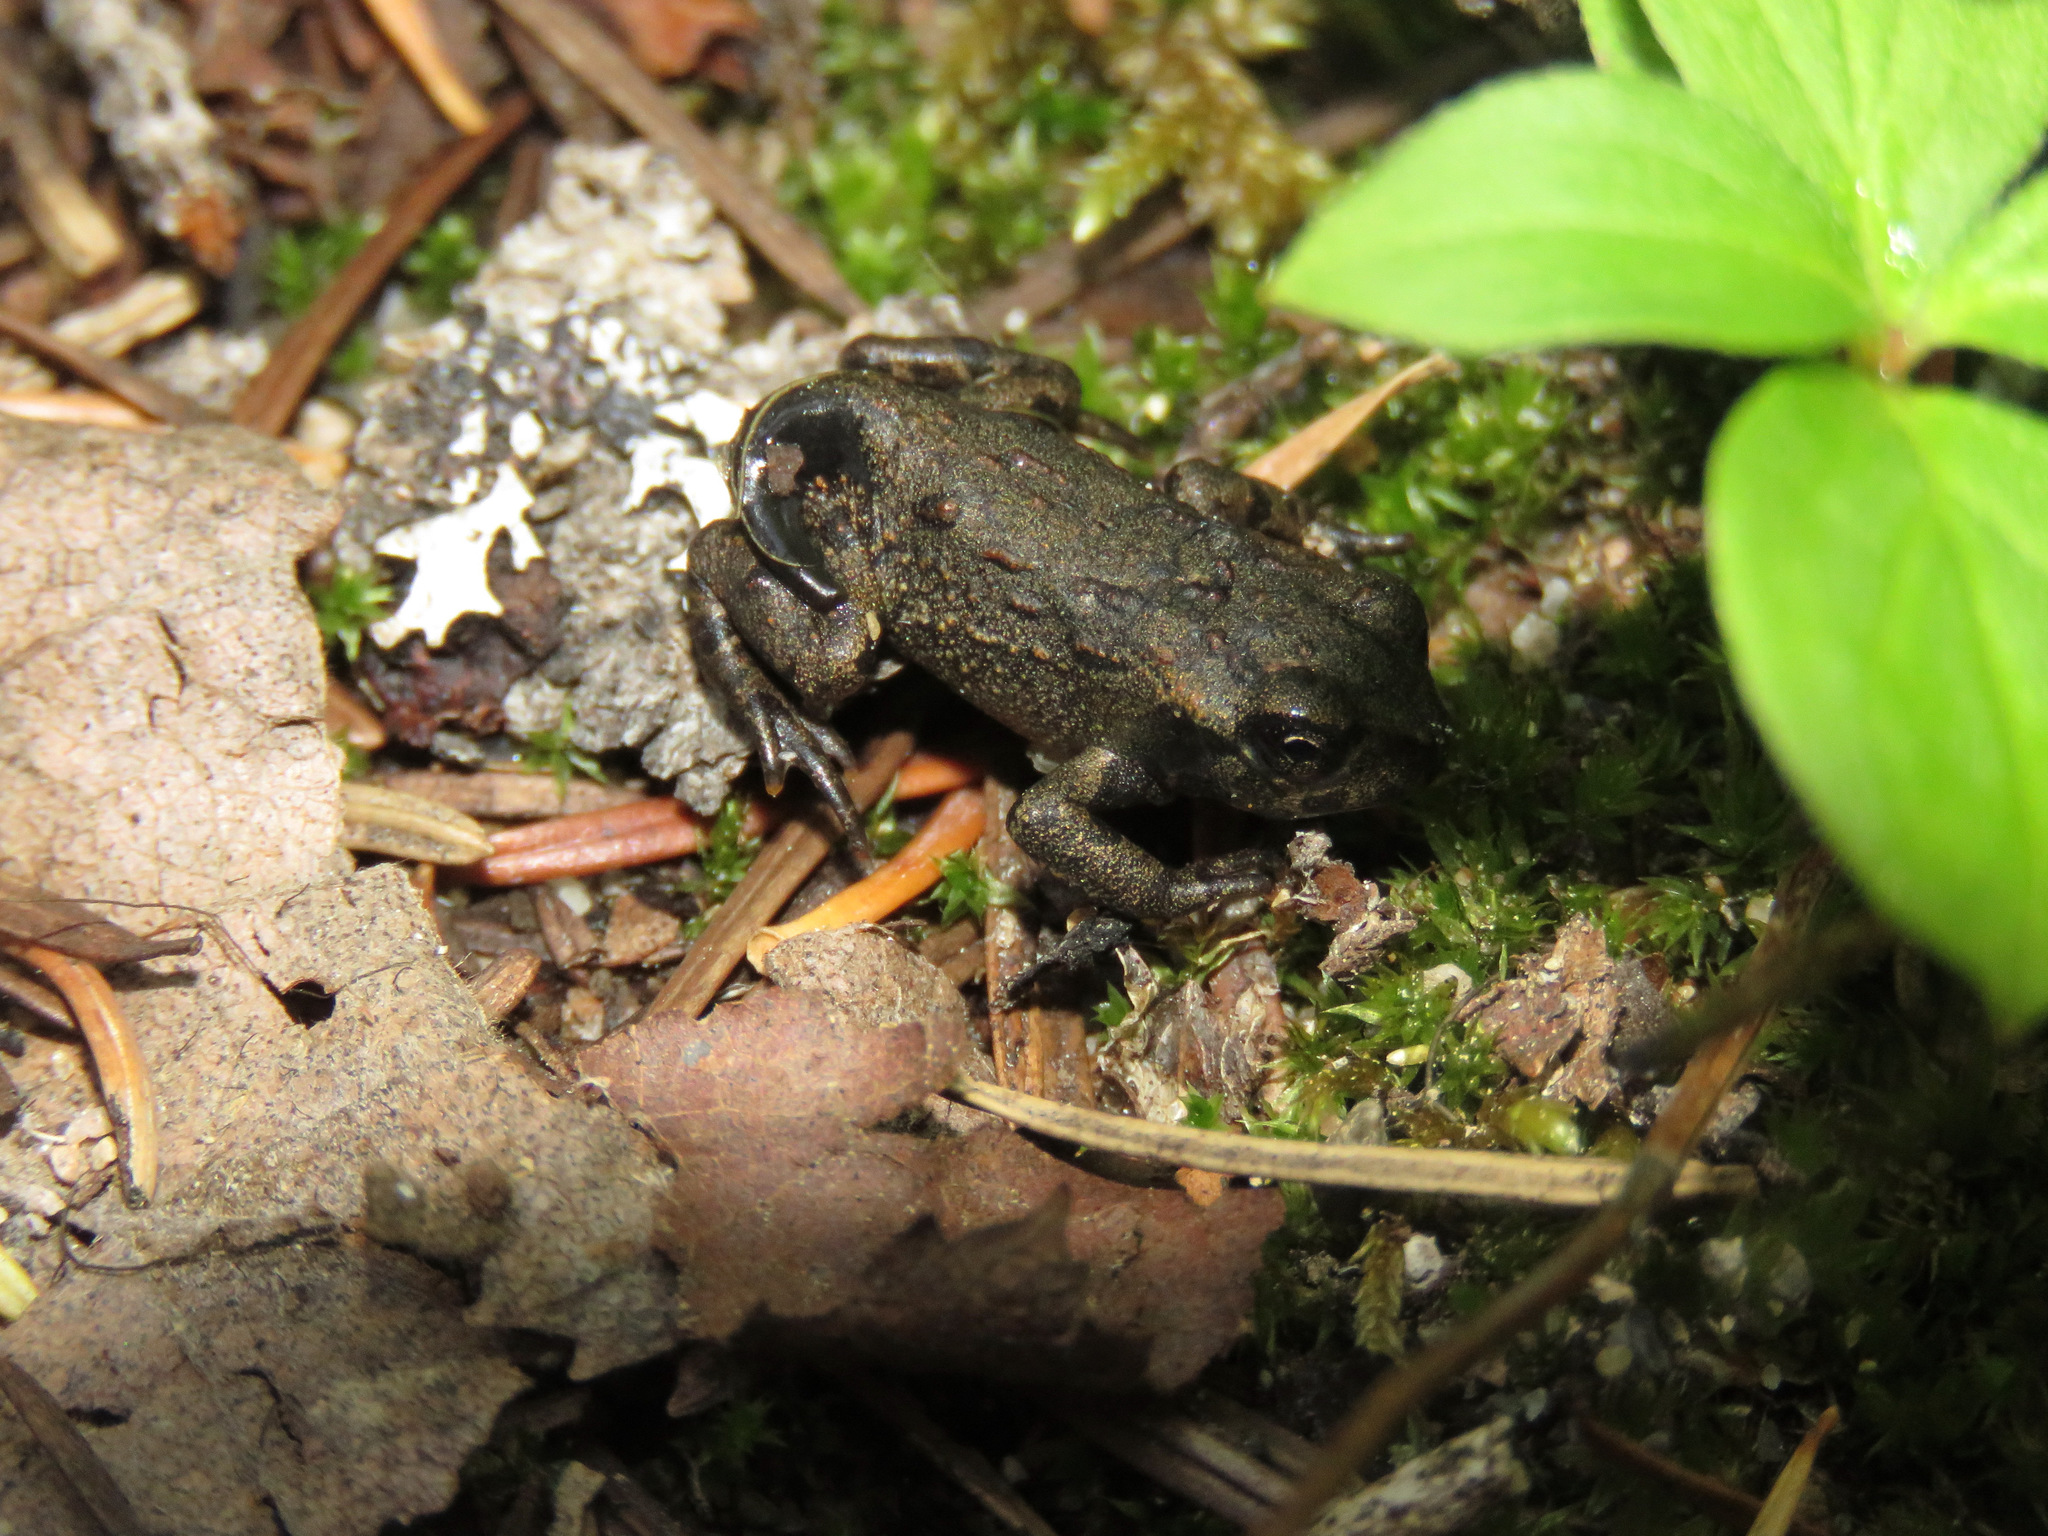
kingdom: Animalia
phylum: Chordata
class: Amphibia
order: Anura
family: Bufonidae
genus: Anaxyrus
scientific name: Anaxyrus boreas
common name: Western toad
